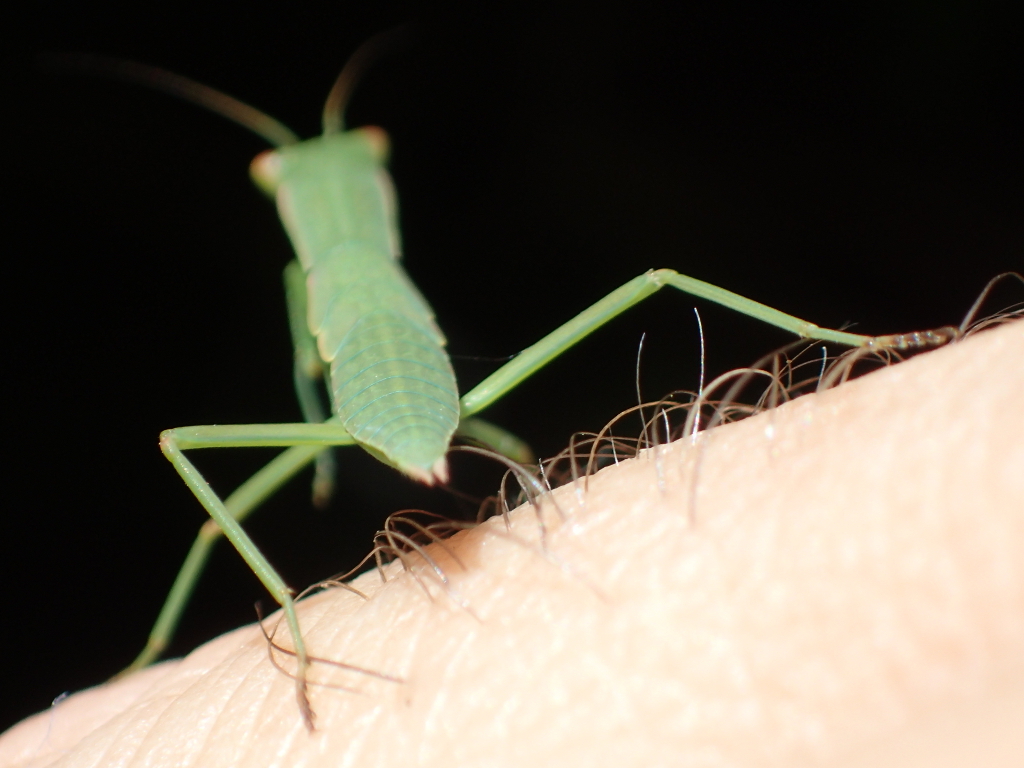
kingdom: Animalia
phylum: Arthropoda
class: Insecta
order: Mantodea
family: Mantidae
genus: Orthodera
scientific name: Orthodera novaezealandiae
